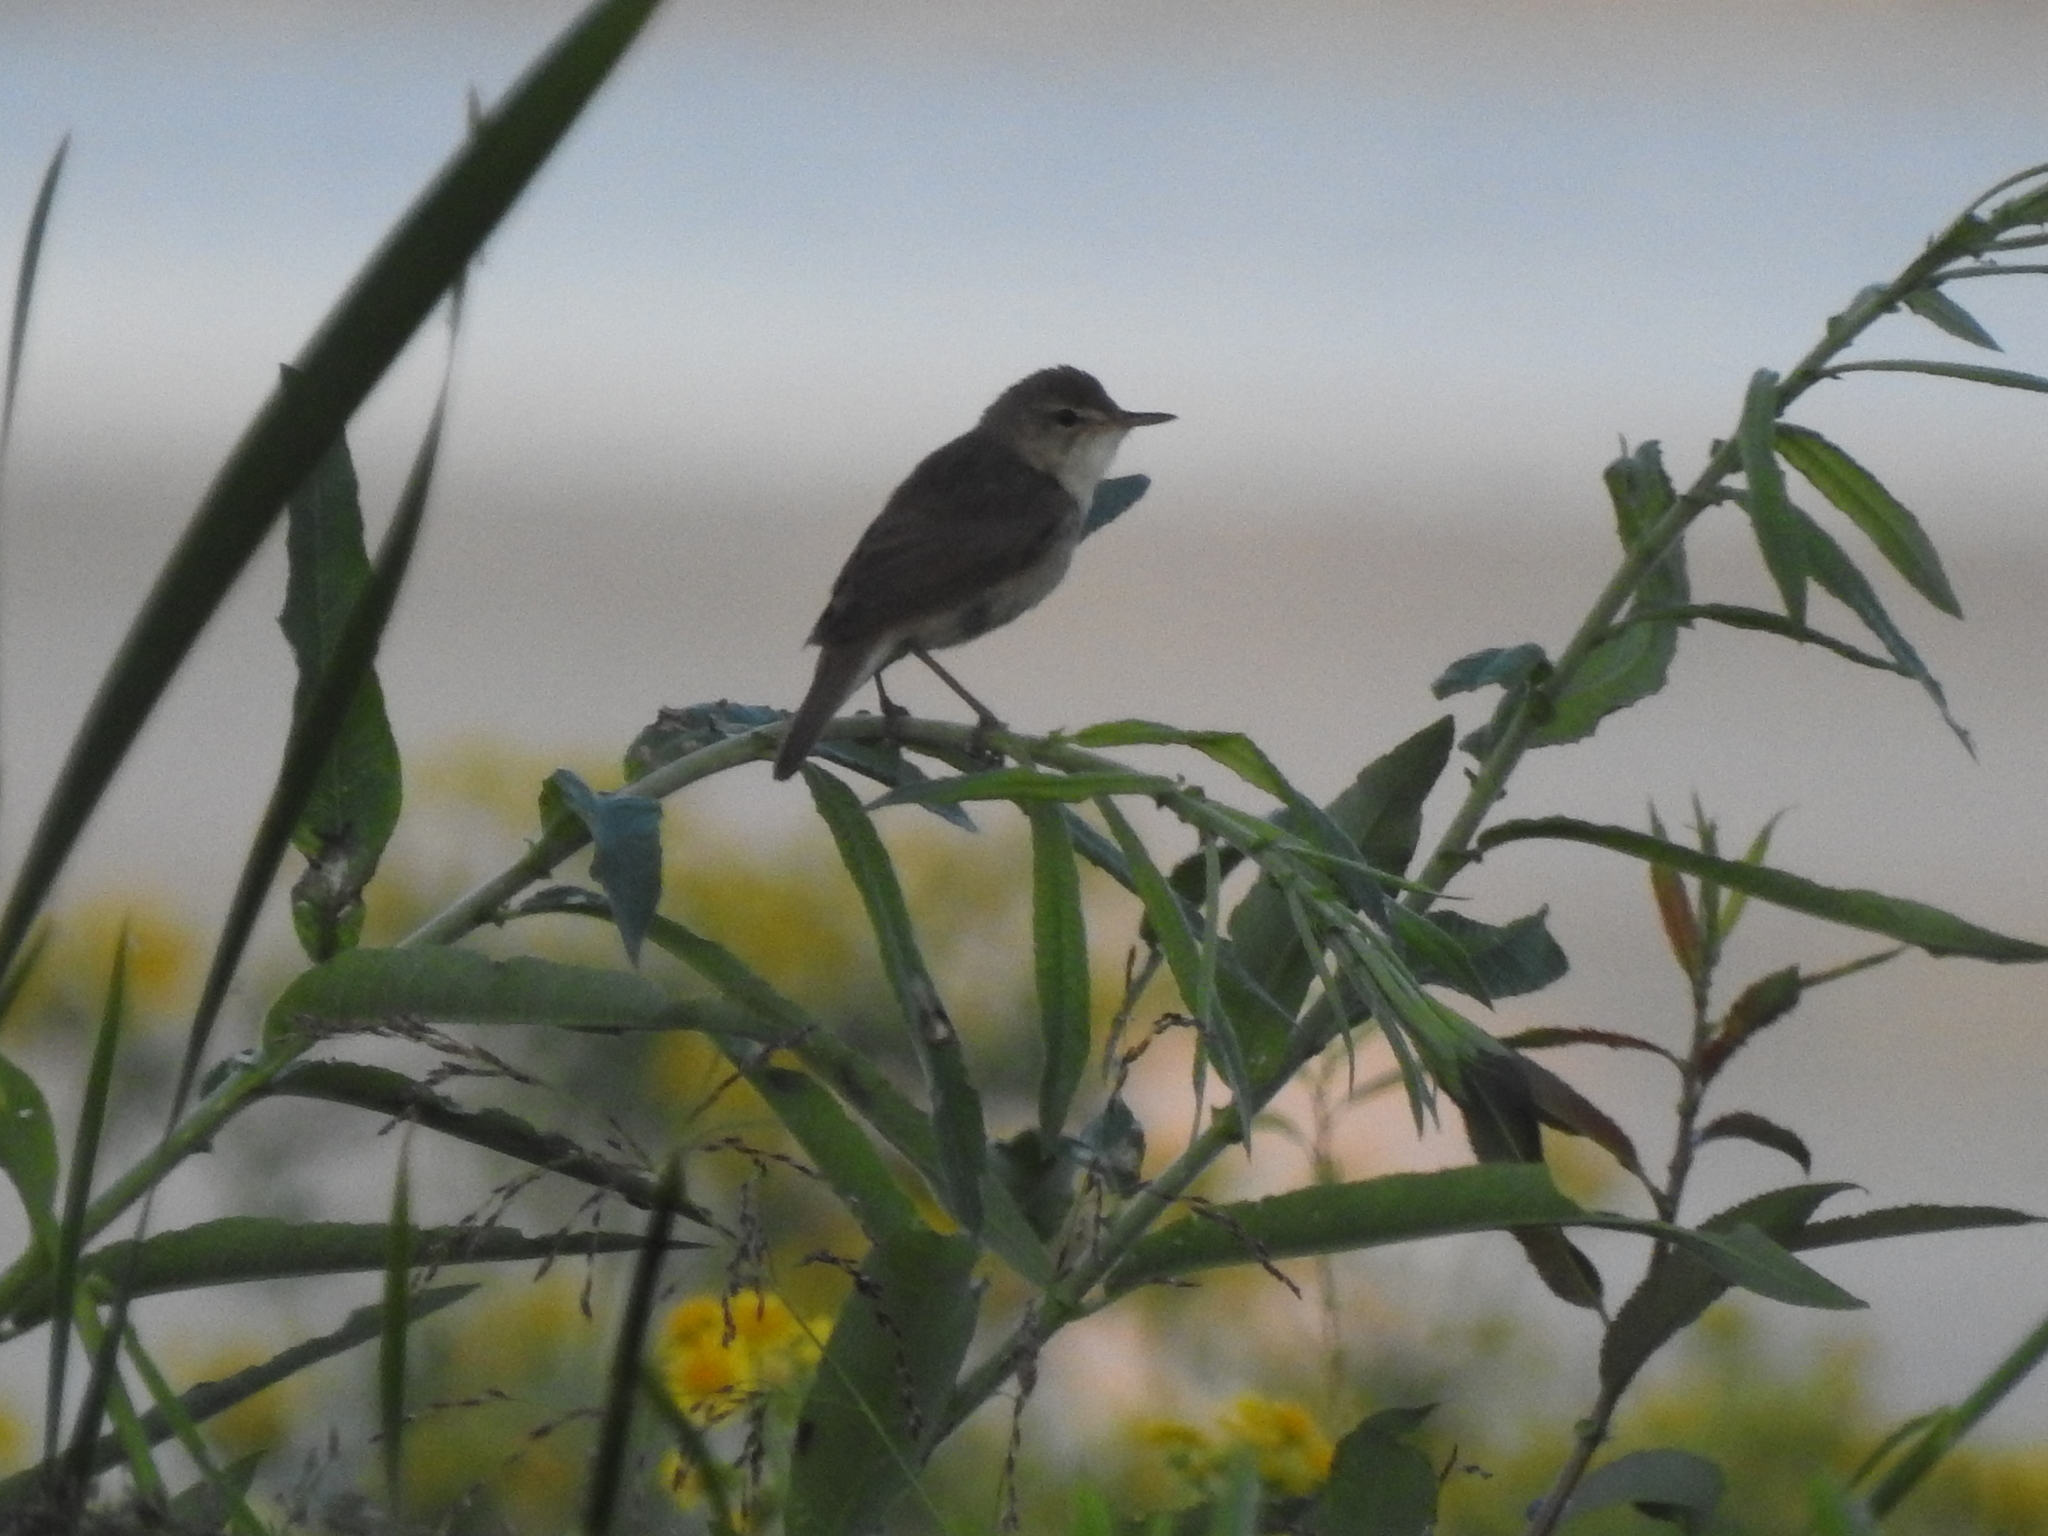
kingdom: Animalia
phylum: Chordata
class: Aves
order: Passeriformes
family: Acrocephalidae
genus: Acrocephalus
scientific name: Acrocephalus dumetorum
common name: Blyth's reed warbler
